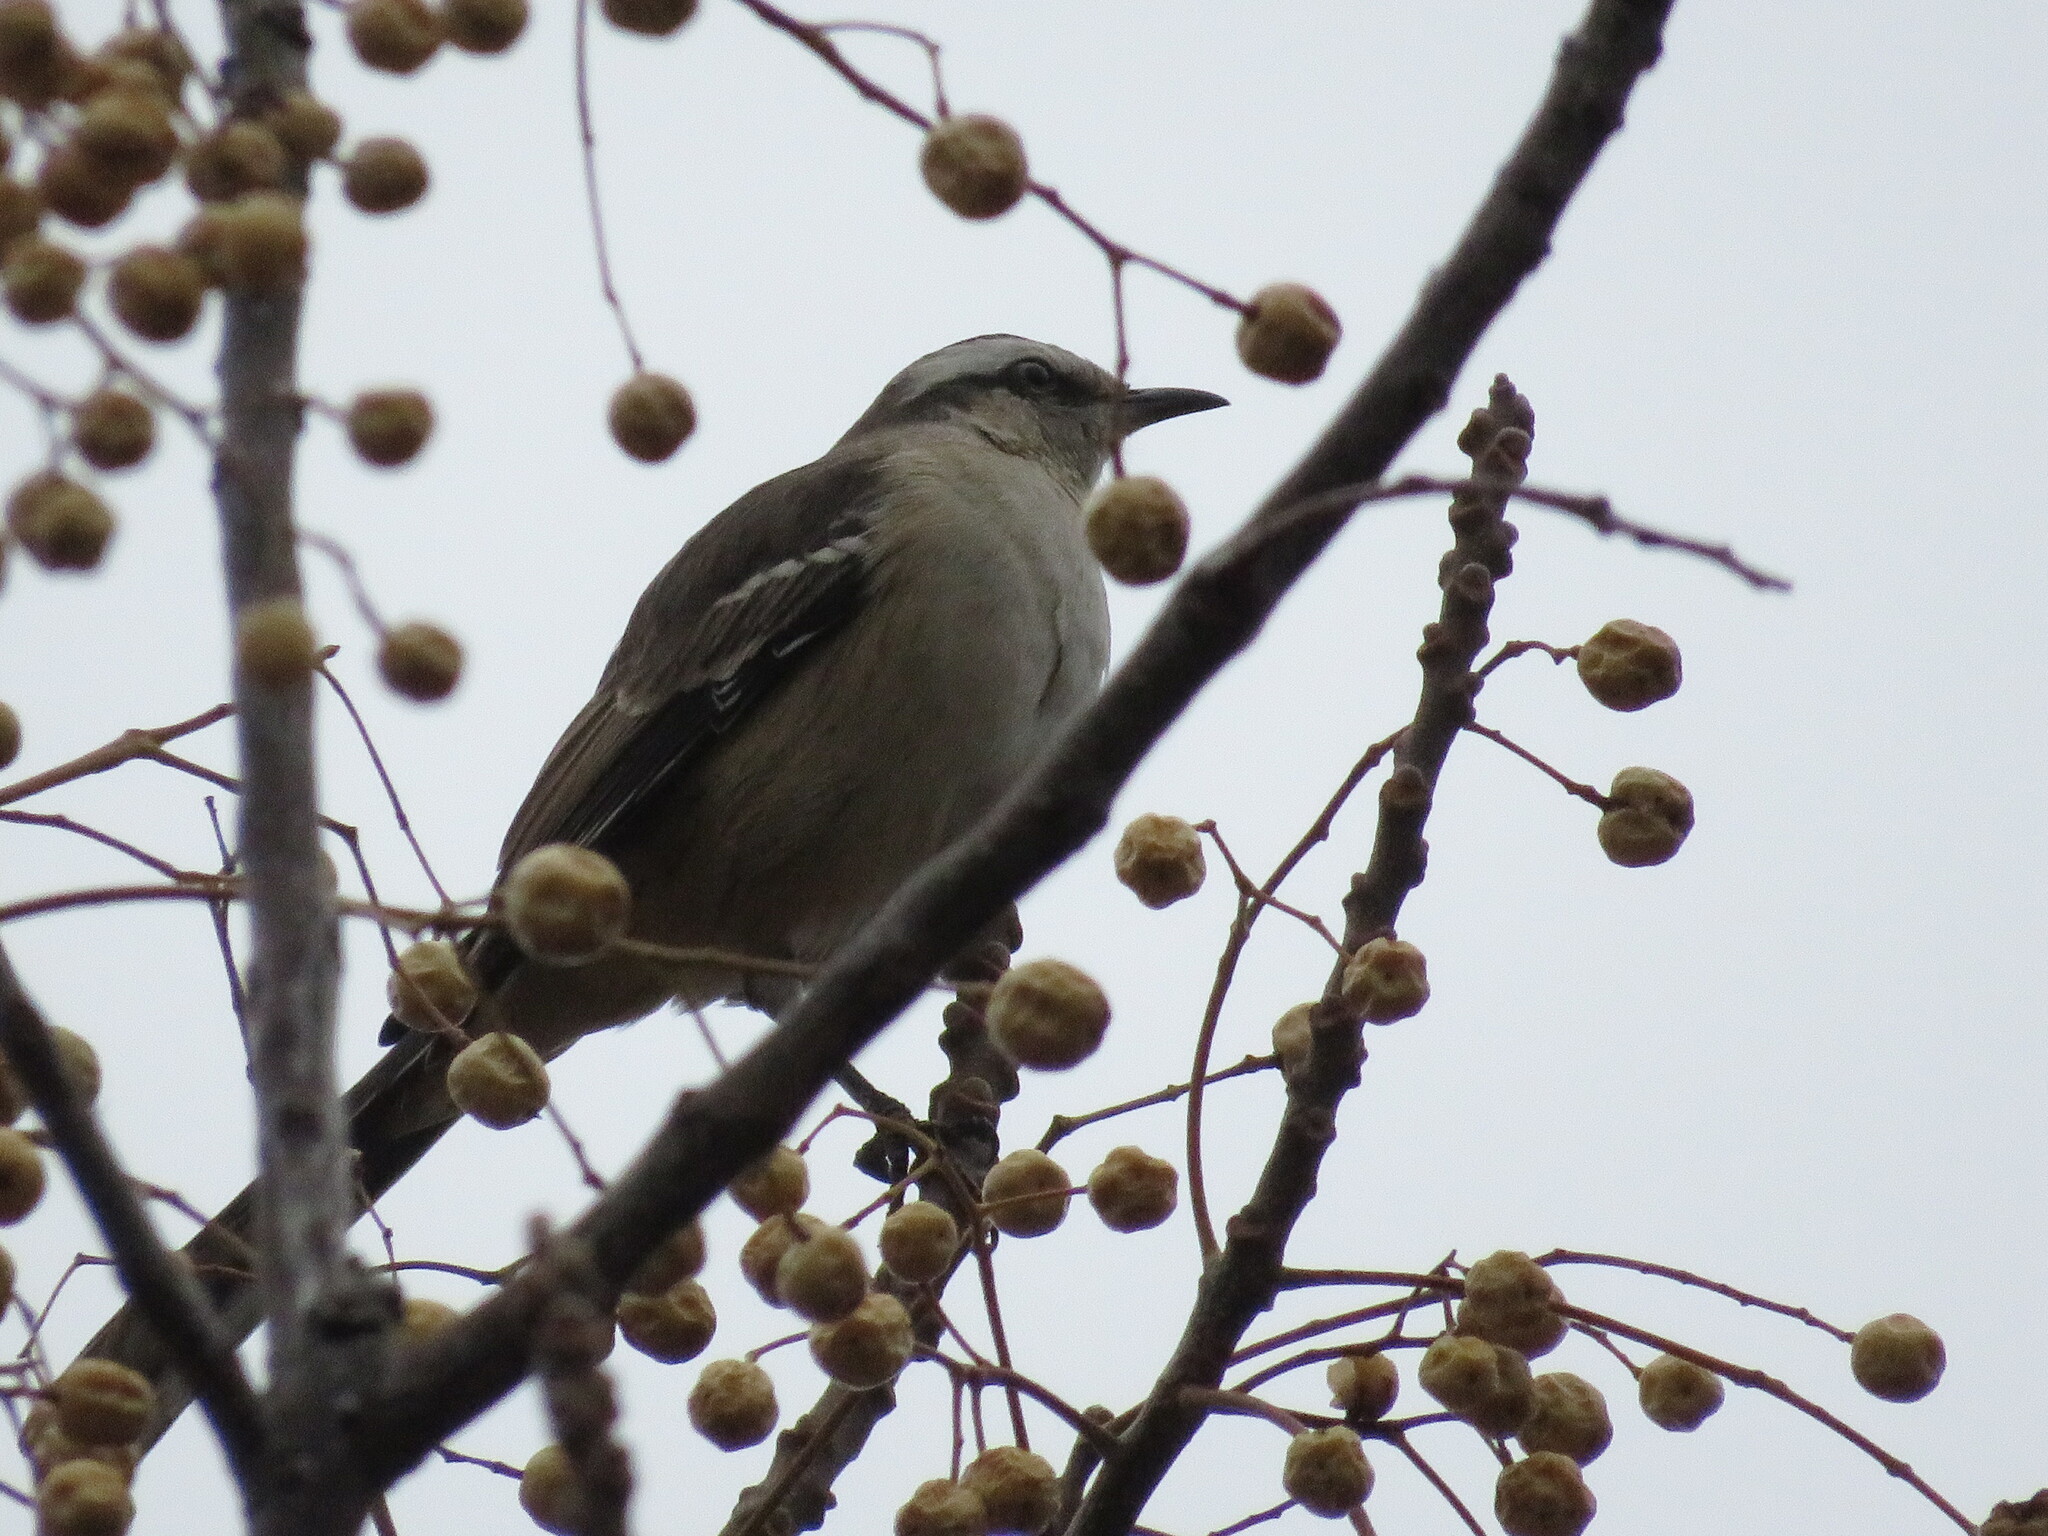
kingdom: Animalia
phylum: Chordata
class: Aves
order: Passeriformes
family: Mimidae
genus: Mimus
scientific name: Mimus saturninus
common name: Chalk-browed mockingbird
